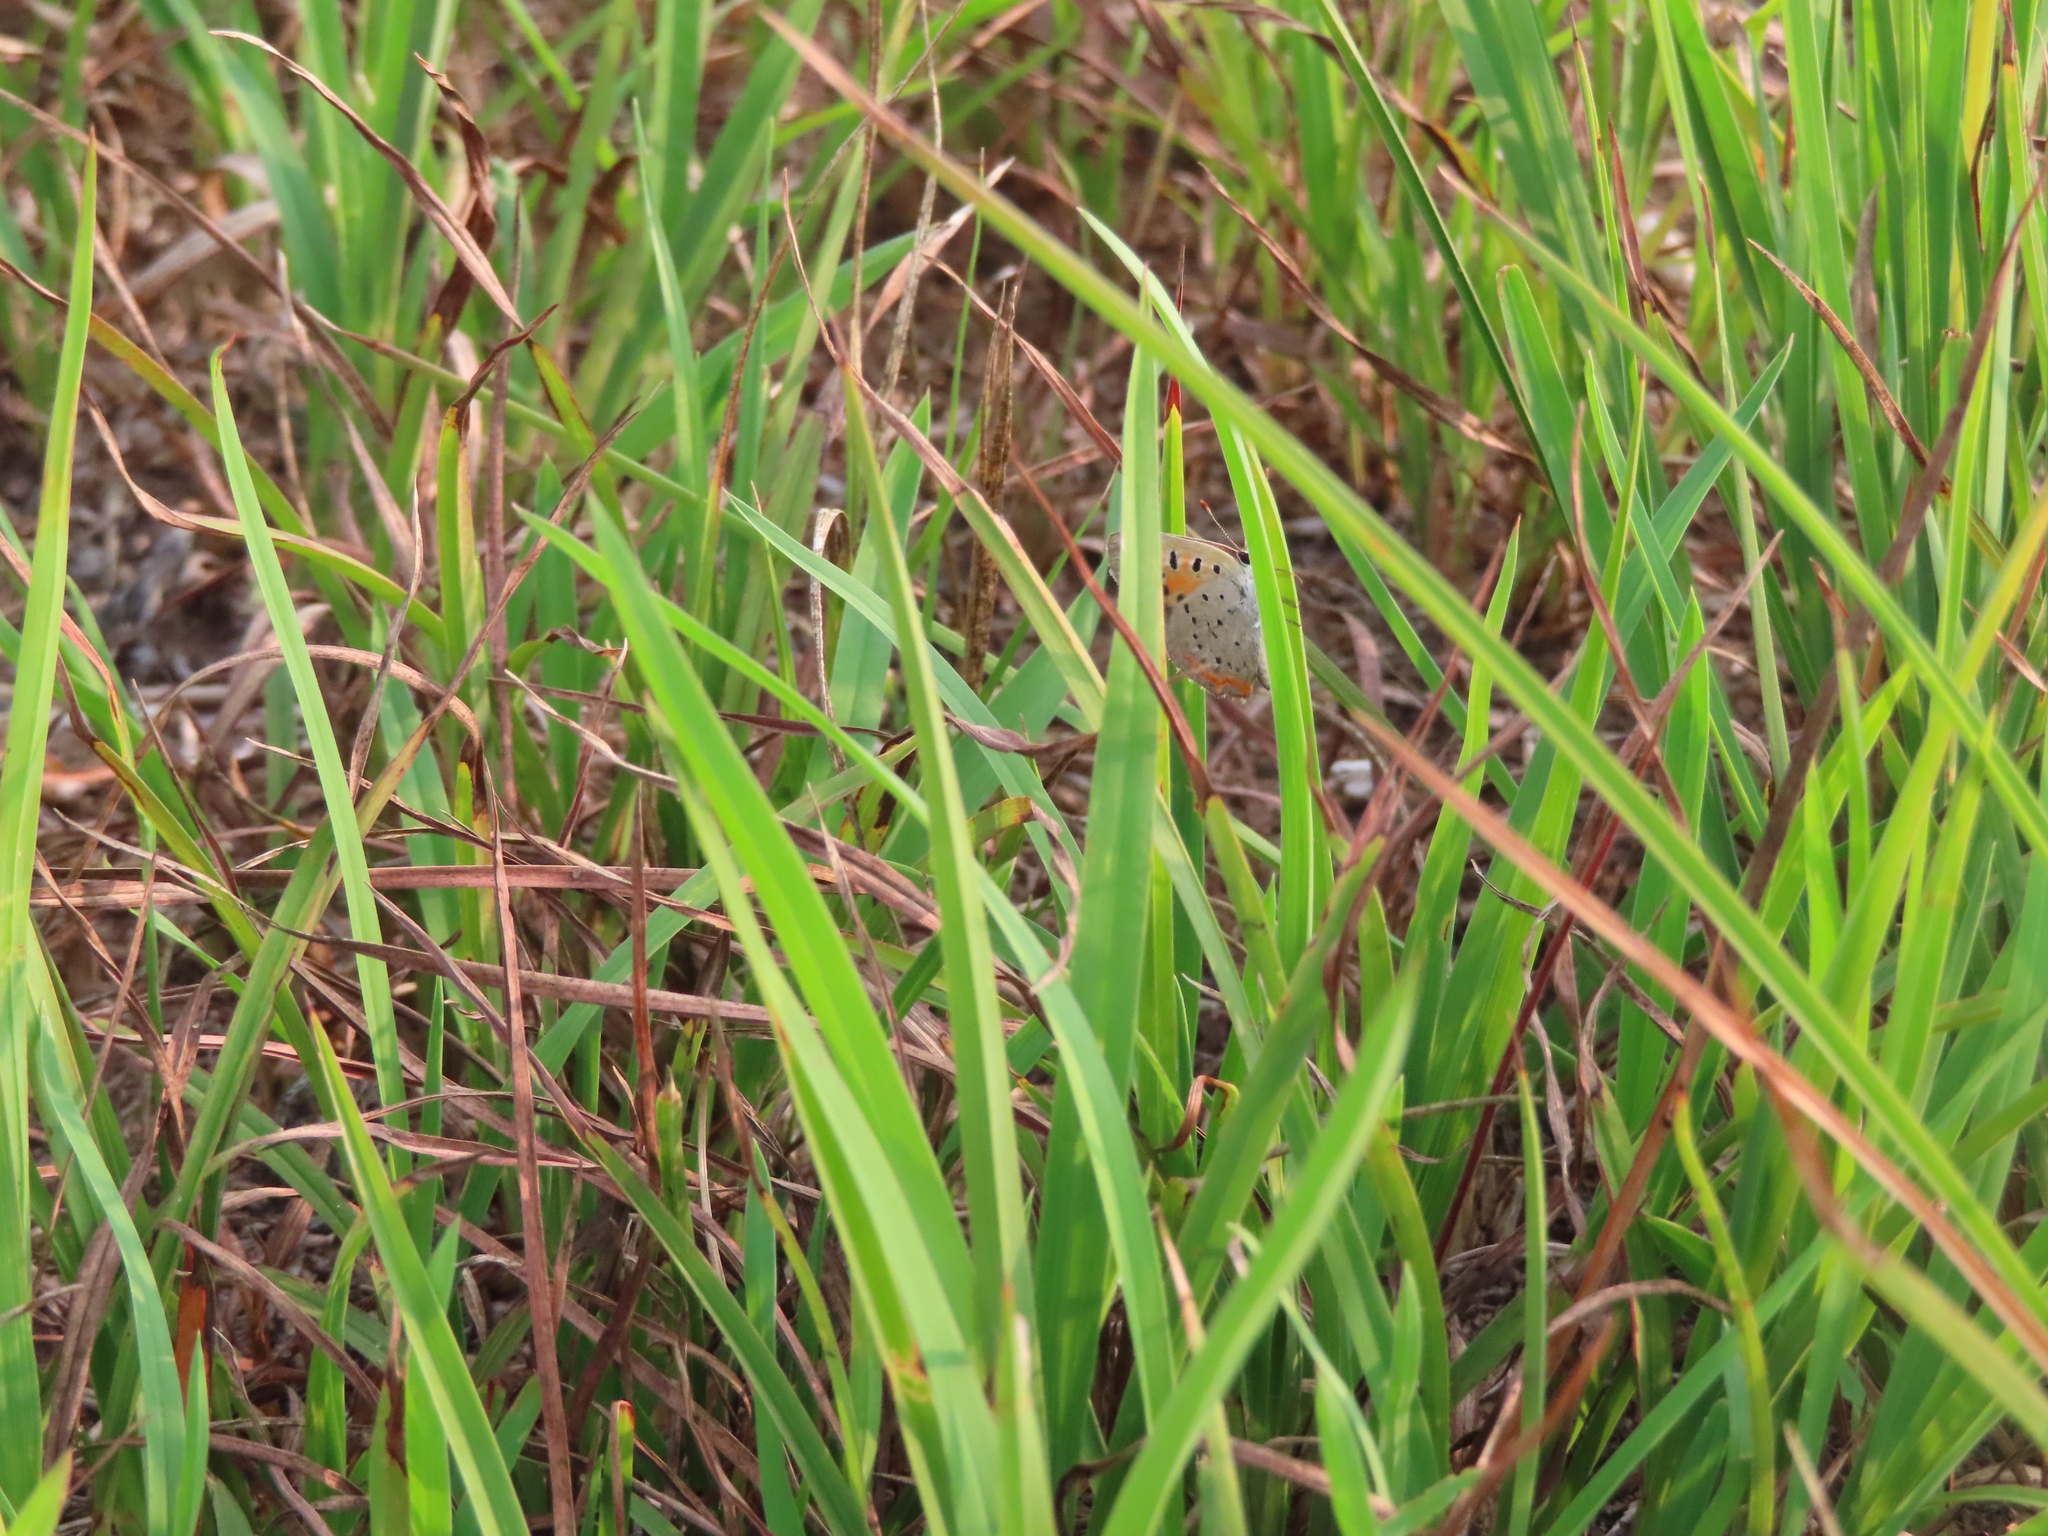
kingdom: Animalia
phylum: Arthropoda
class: Insecta
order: Lepidoptera
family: Lycaenidae
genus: Lycaena
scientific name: Lycaena hypophlaeas
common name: American copper
